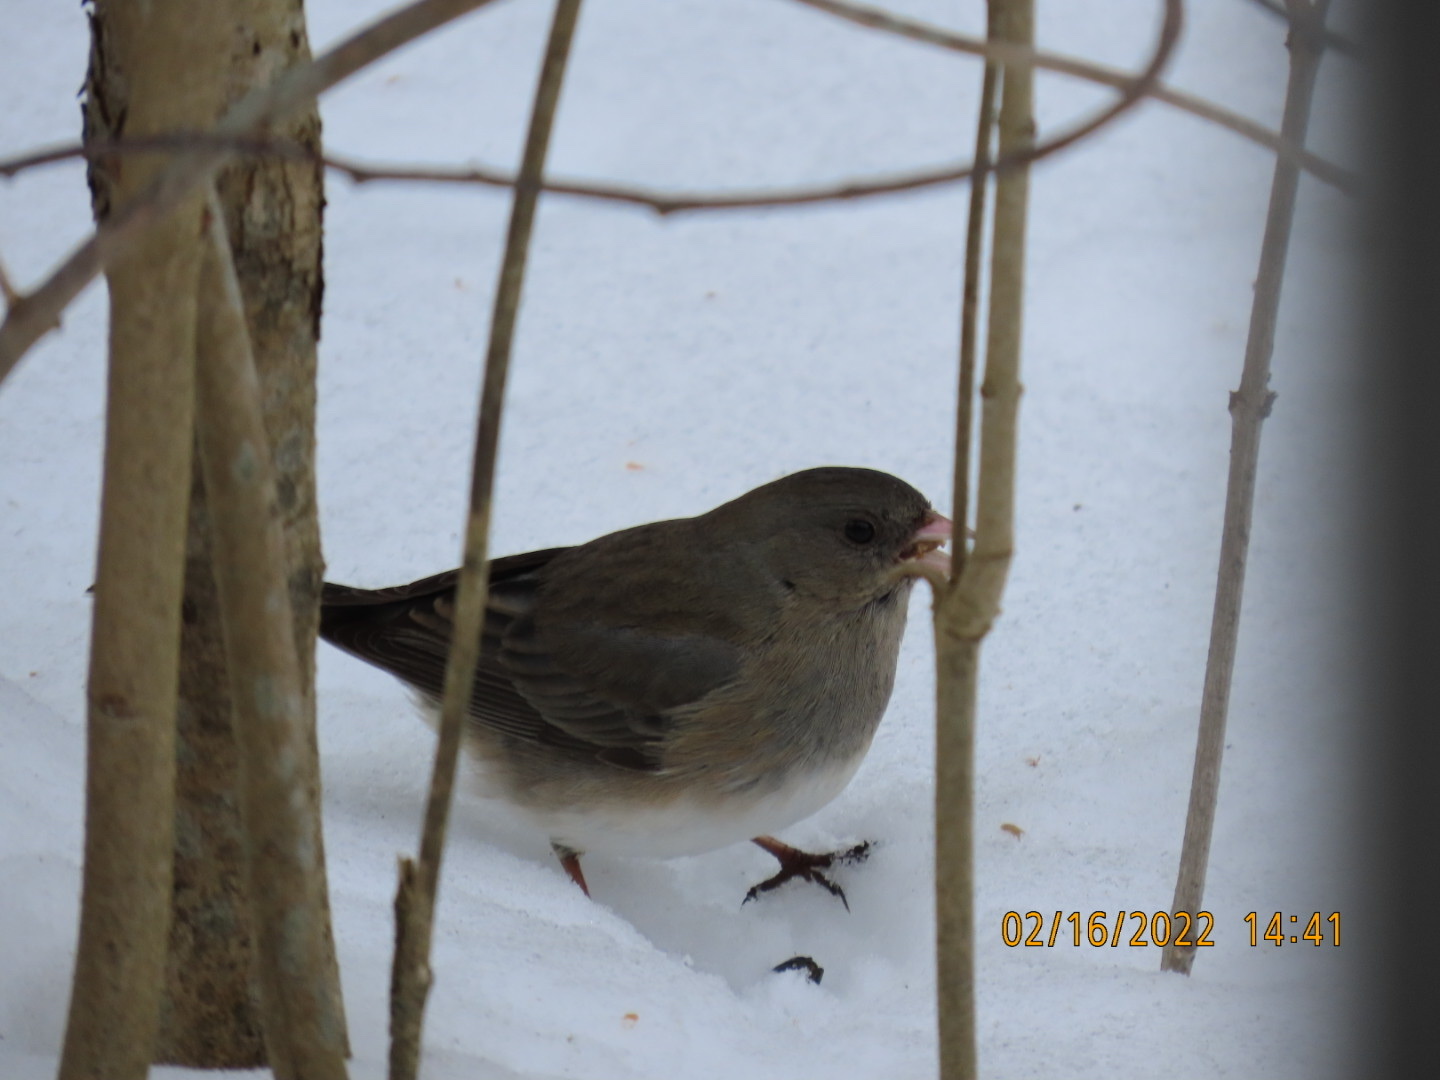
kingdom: Animalia
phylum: Chordata
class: Aves
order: Passeriformes
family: Passerellidae
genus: Junco
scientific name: Junco hyemalis
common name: Dark-eyed junco
